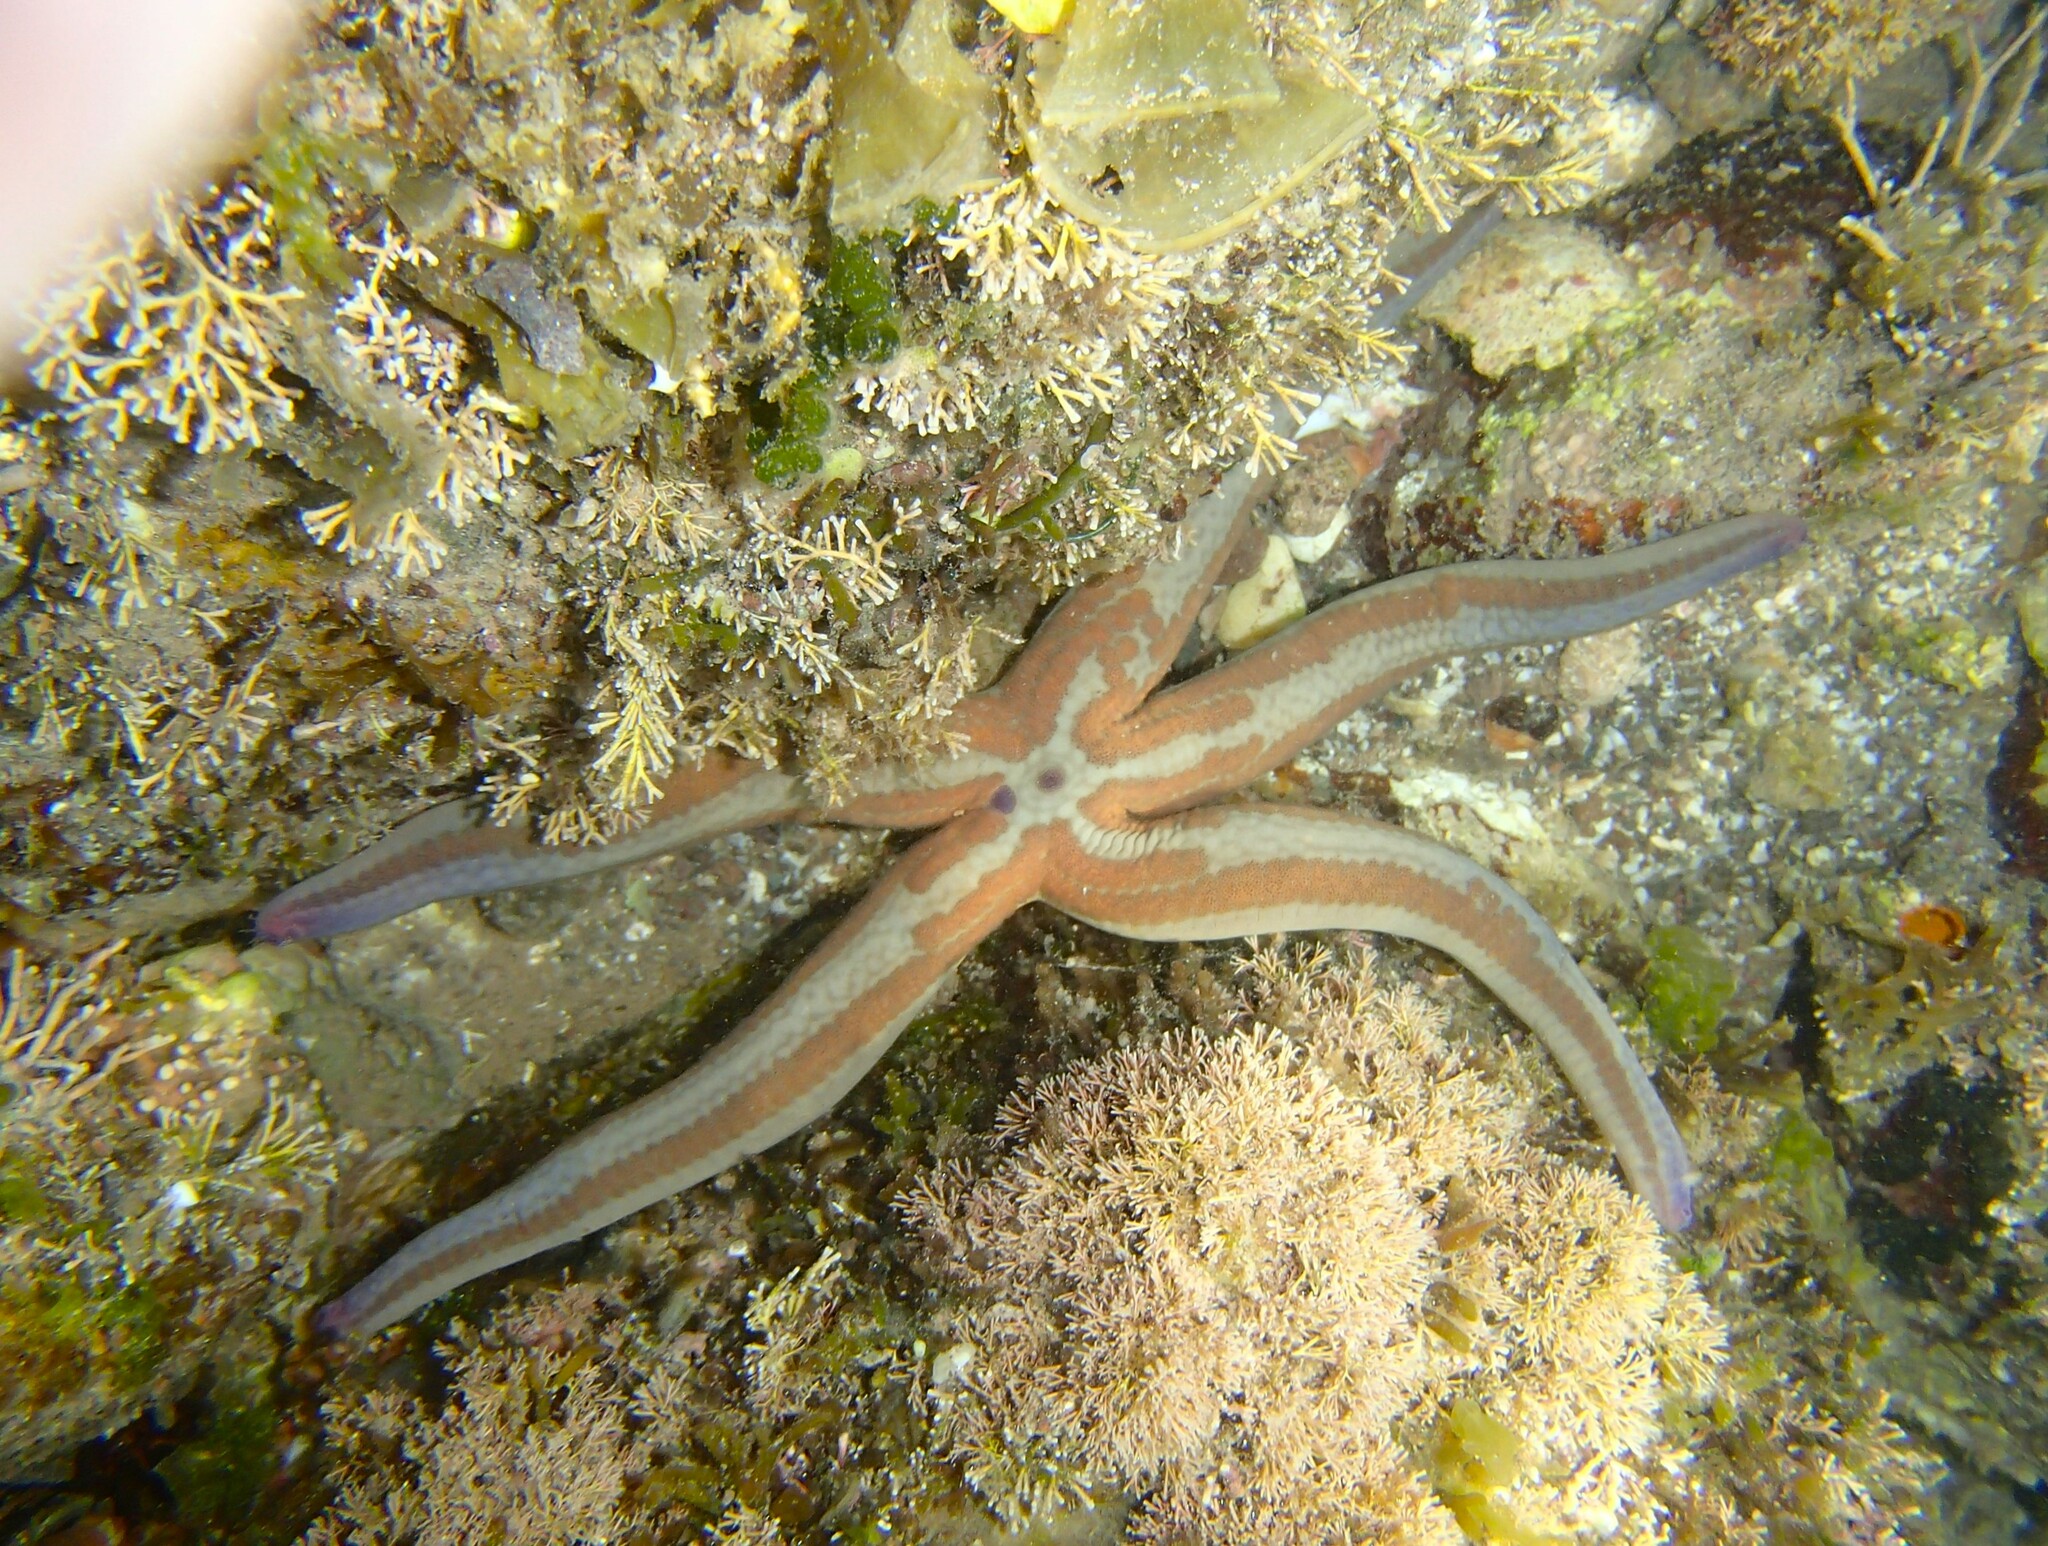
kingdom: Animalia
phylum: Echinodermata
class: Asteroidea
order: Valvatida
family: Ophidiasteridae
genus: Phataria
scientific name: Phataria unifascialis
